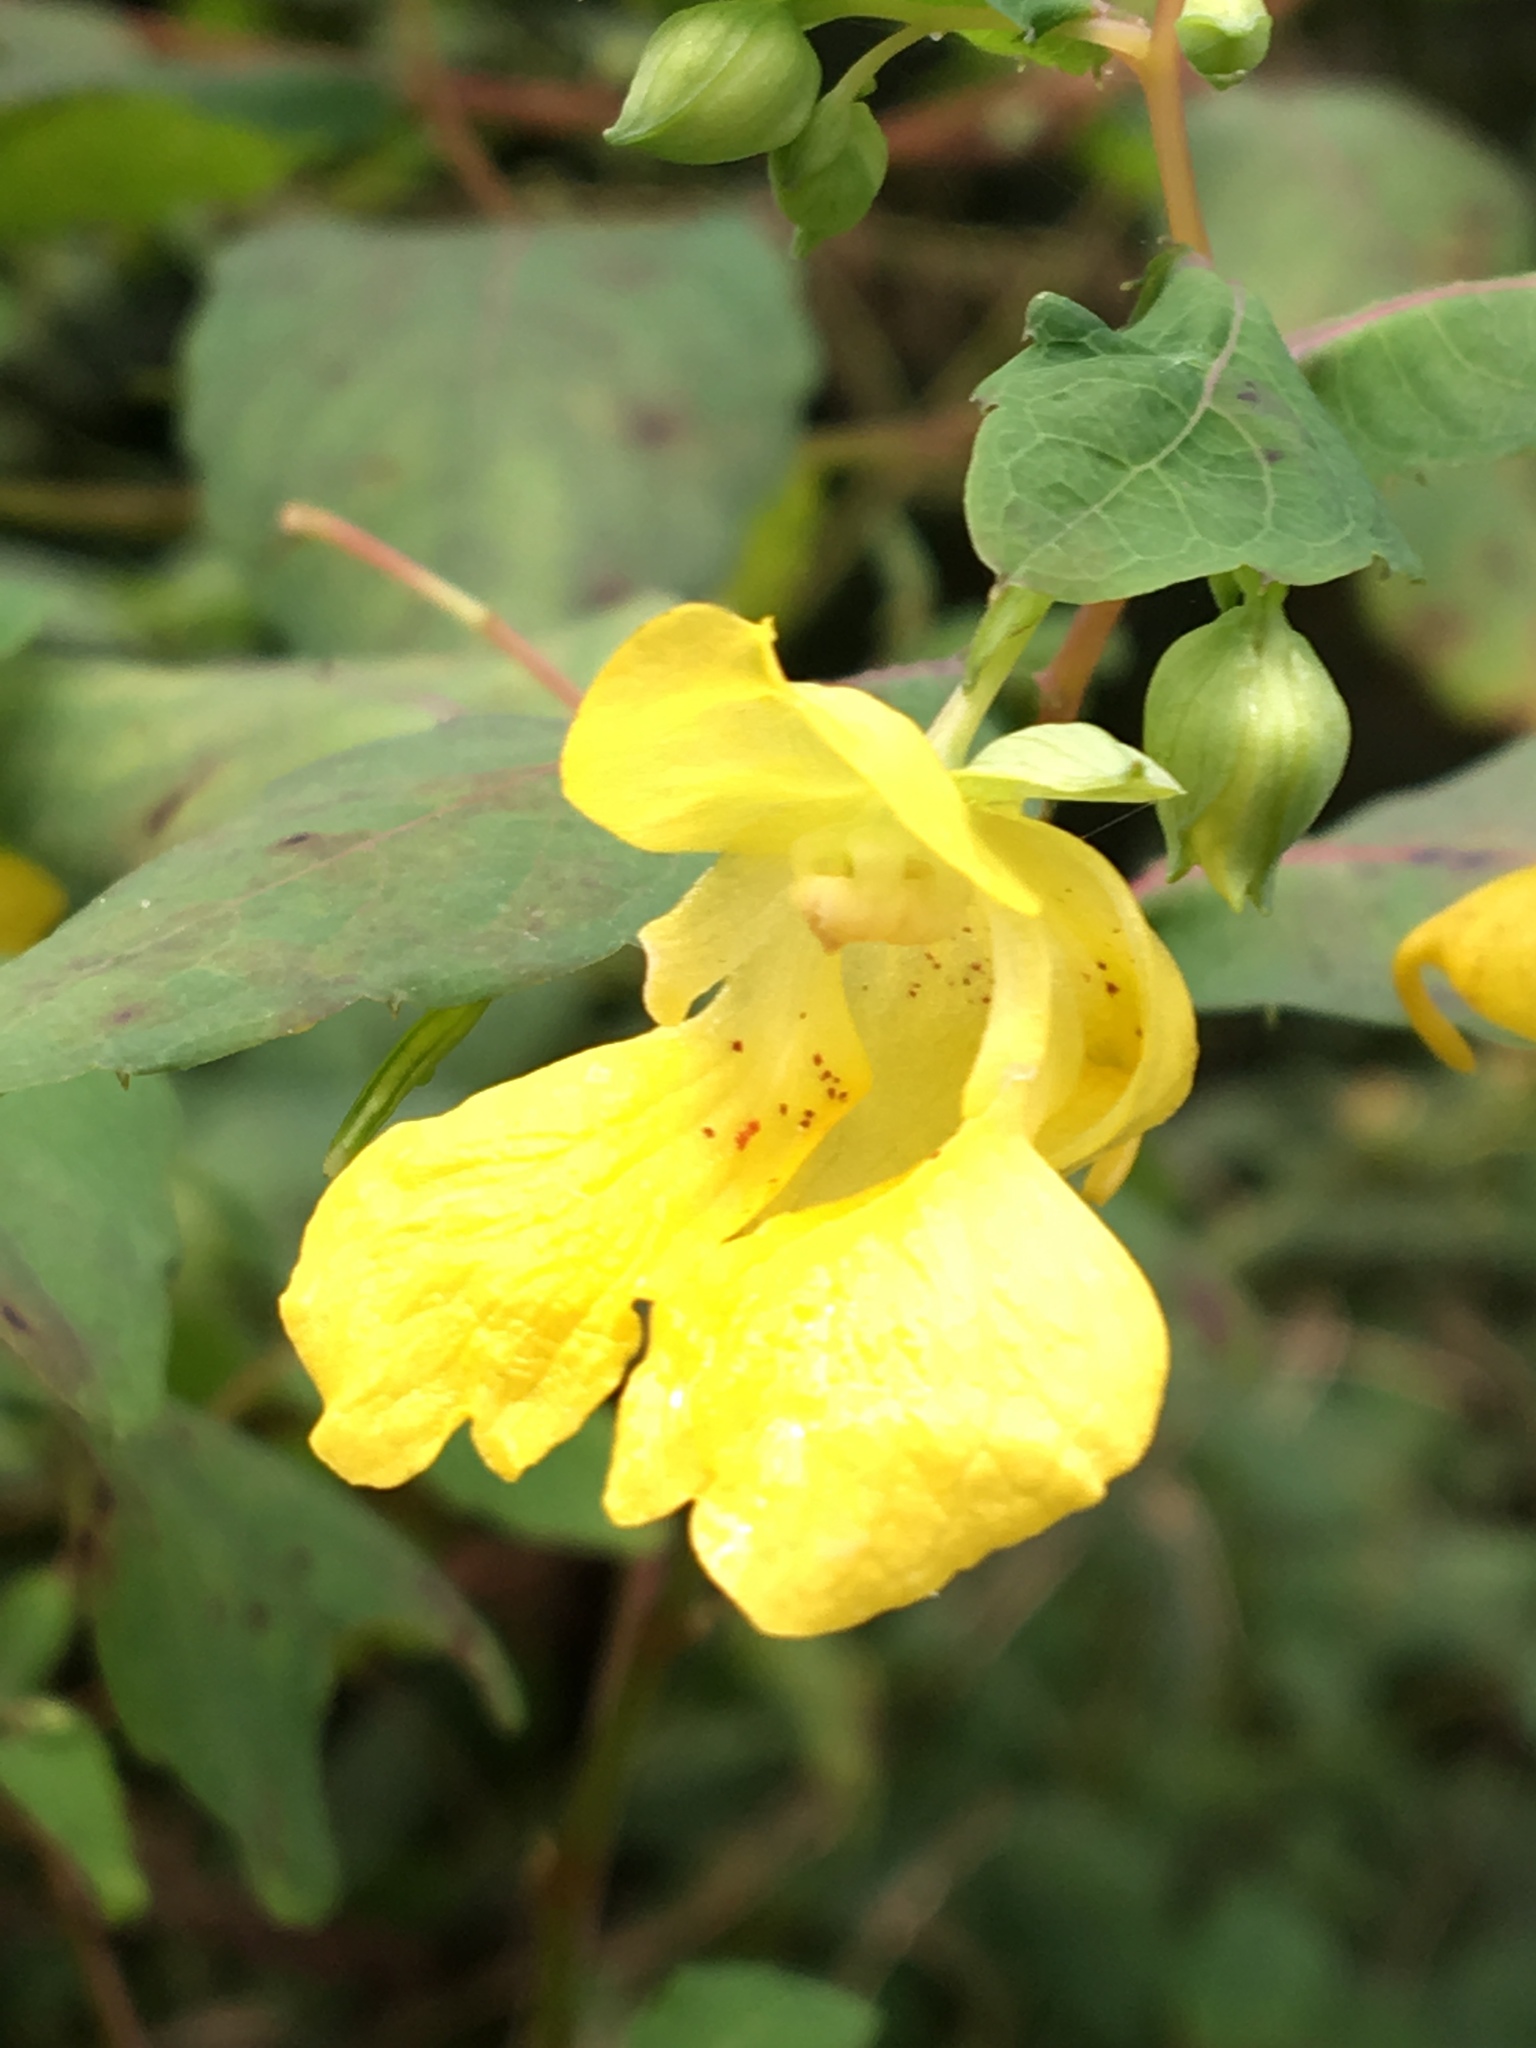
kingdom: Plantae
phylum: Tracheophyta
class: Magnoliopsida
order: Ericales
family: Balsaminaceae
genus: Impatiens
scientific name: Impatiens pallida
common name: Pale snapweed
